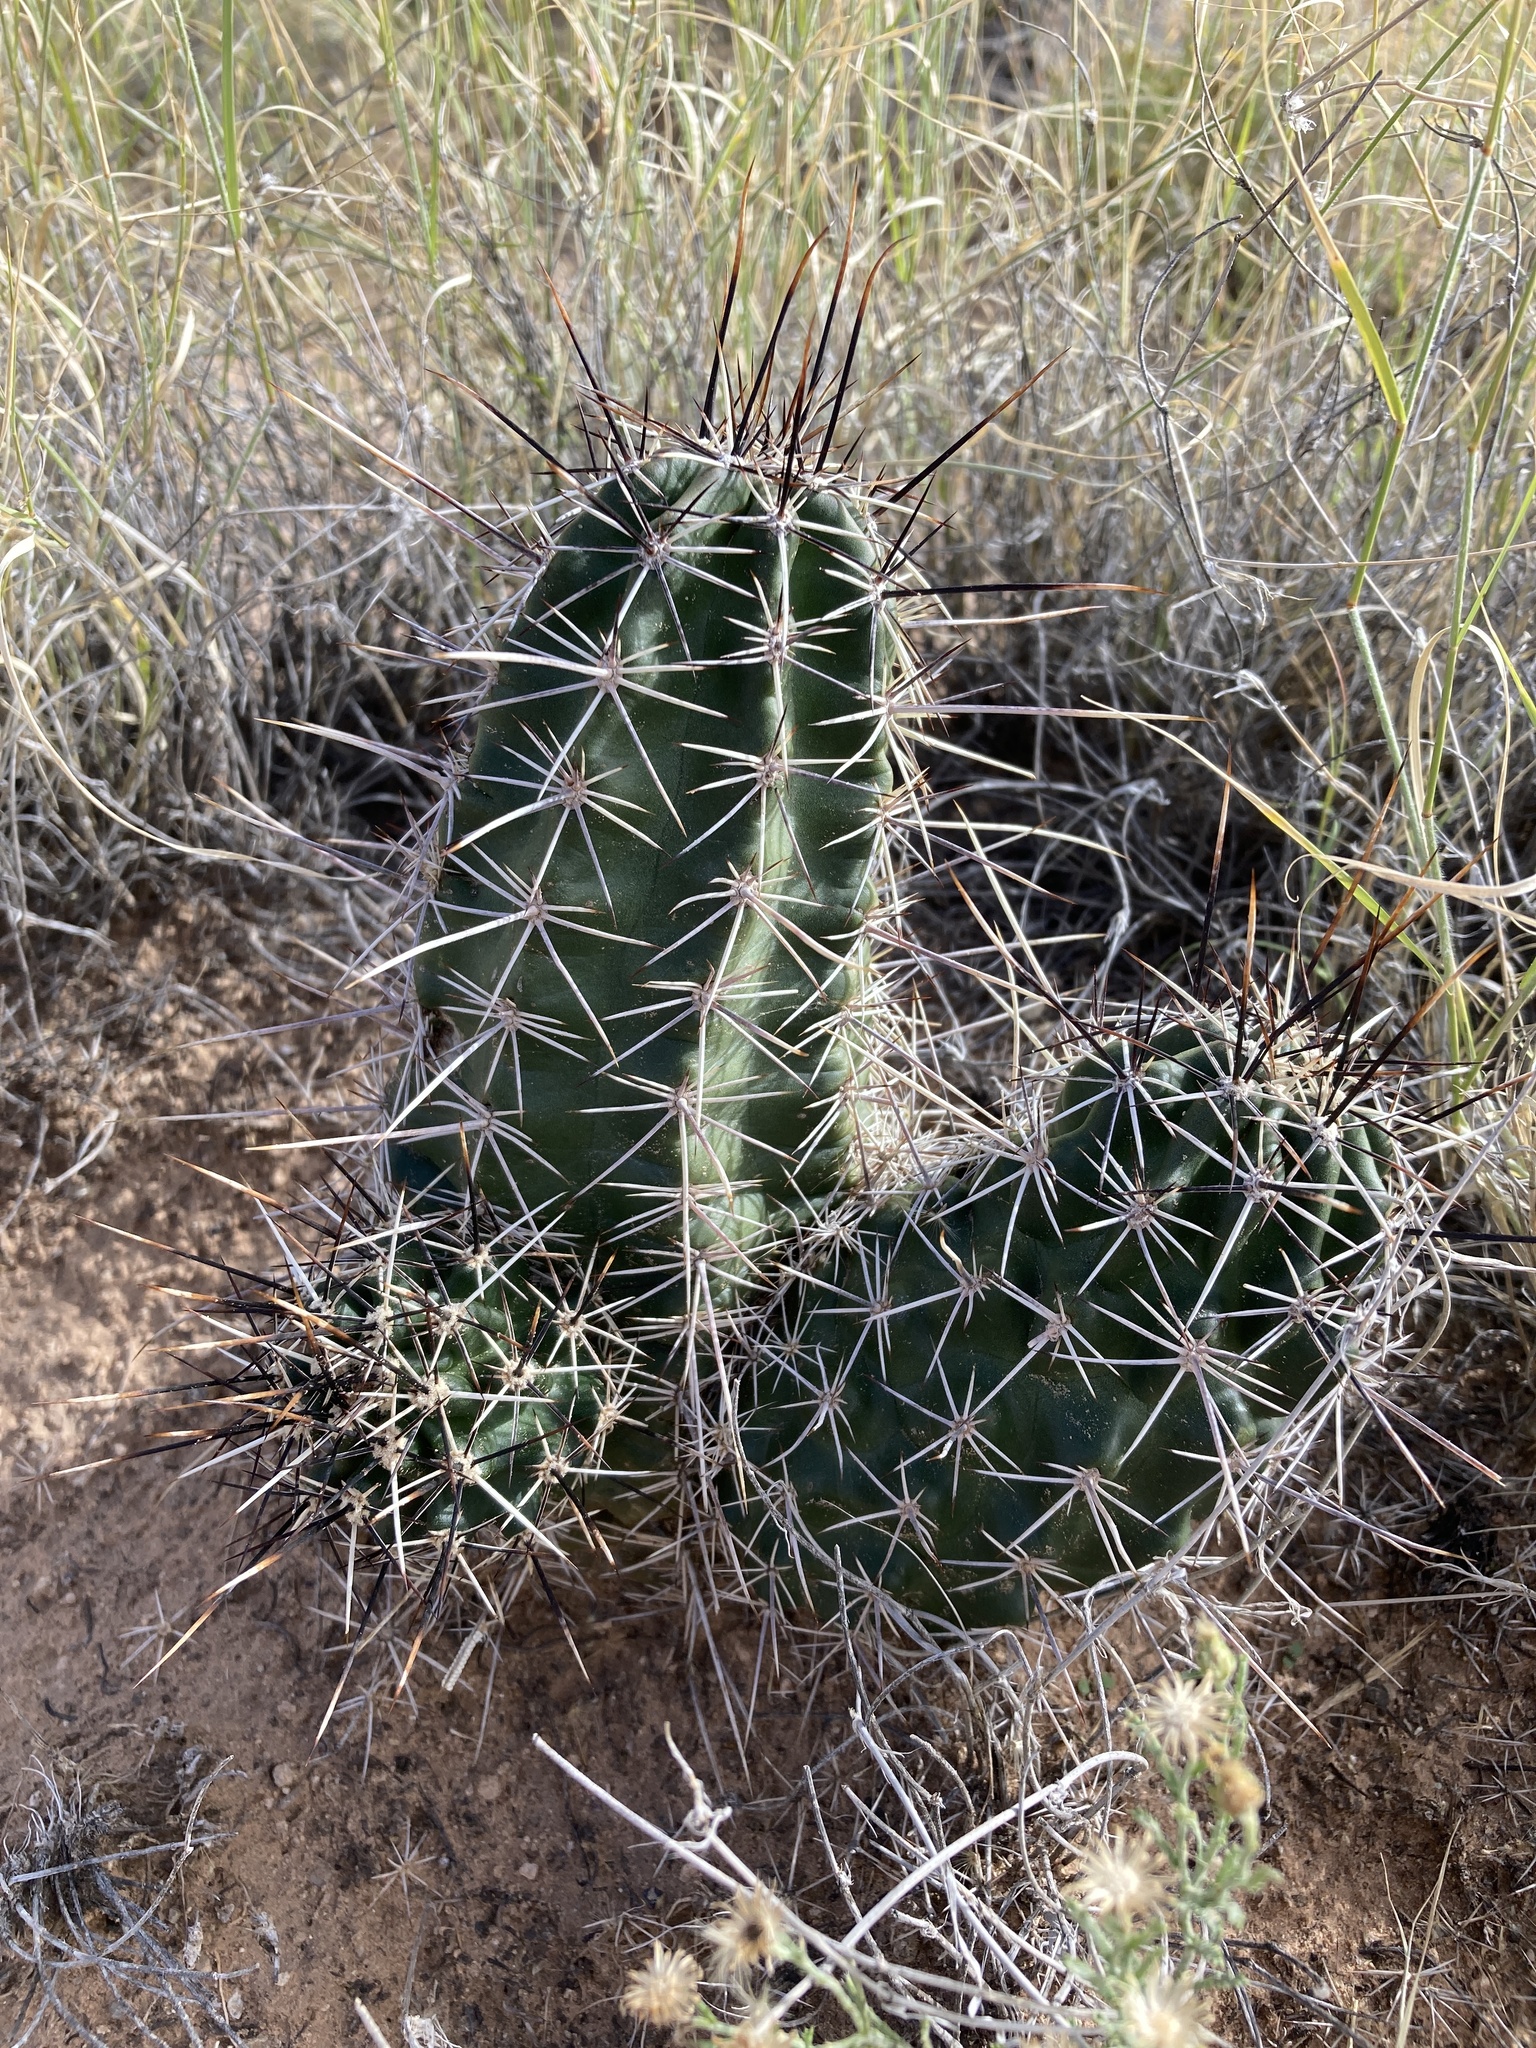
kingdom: Plantae
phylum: Tracheophyta
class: Magnoliopsida
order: Caryophyllales
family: Cactaceae
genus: Echinocereus
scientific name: Echinocereus fendleri
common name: Fendler's hedgehog cactus
